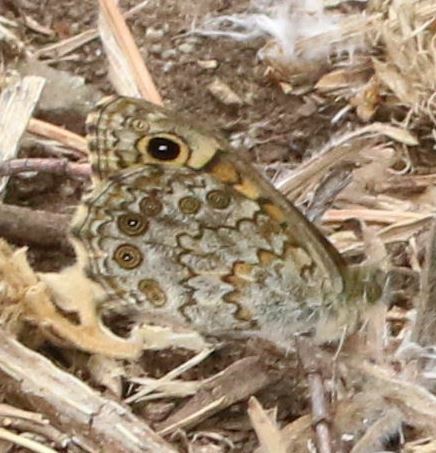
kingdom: Animalia
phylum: Arthropoda
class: Insecta
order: Lepidoptera
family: Nymphalidae
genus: Pararge
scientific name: Pararge Lasiommata megera
